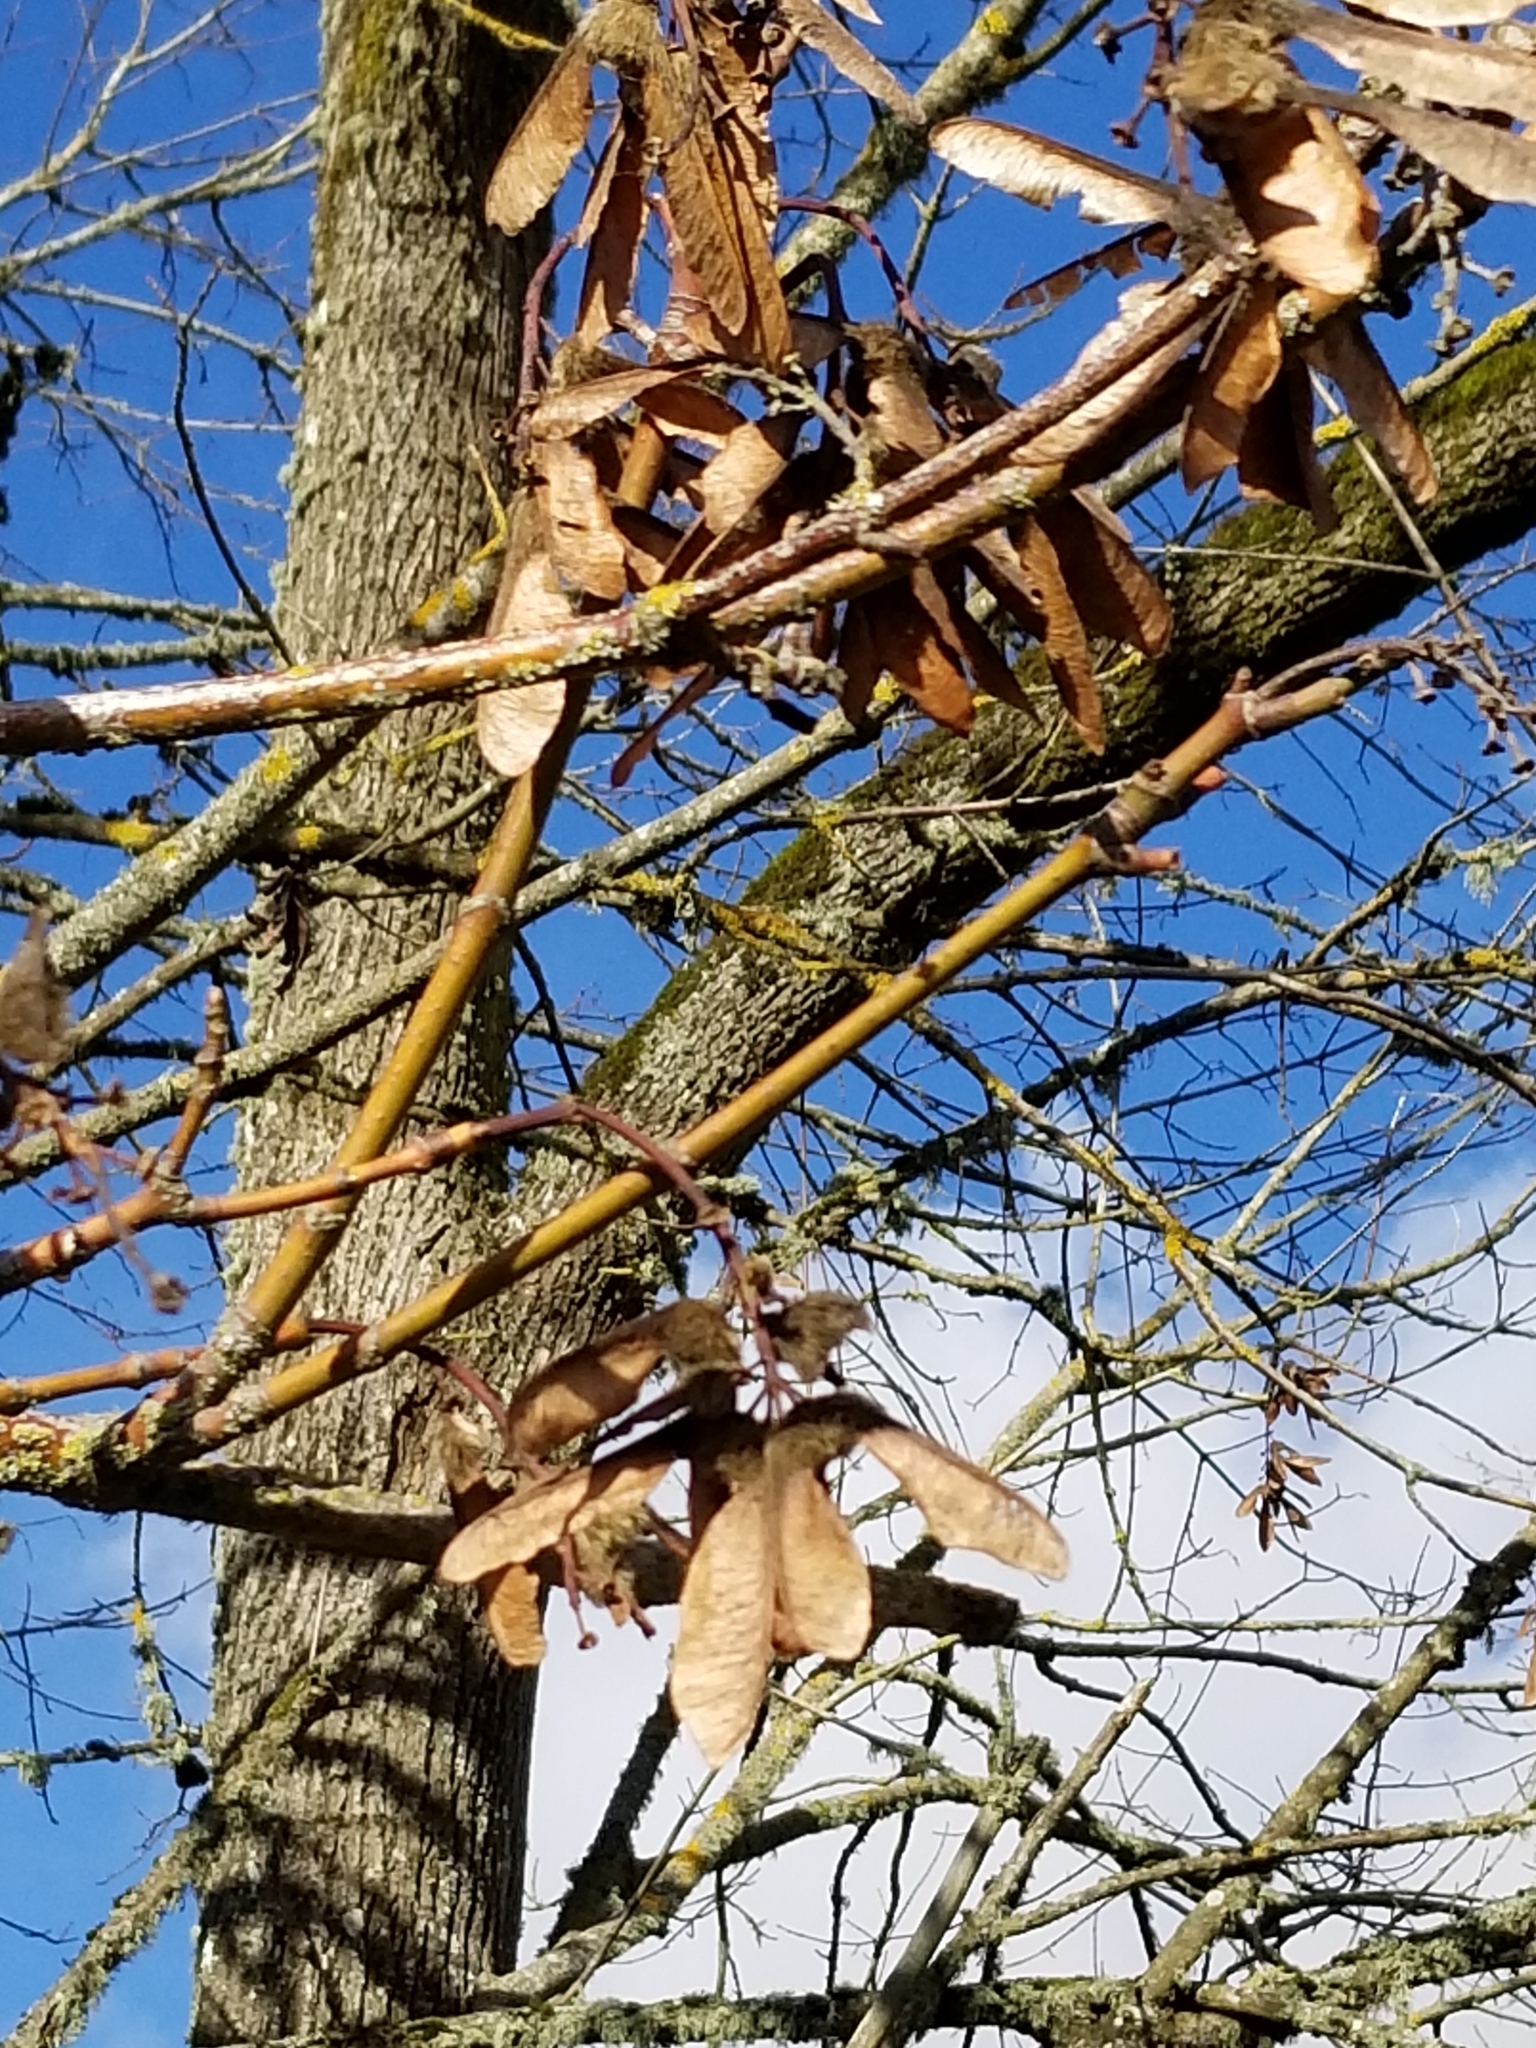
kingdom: Plantae
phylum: Tracheophyta
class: Magnoliopsida
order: Sapindales
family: Sapindaceae
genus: Acer
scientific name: Acer macrophyllum
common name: Oregon maple
